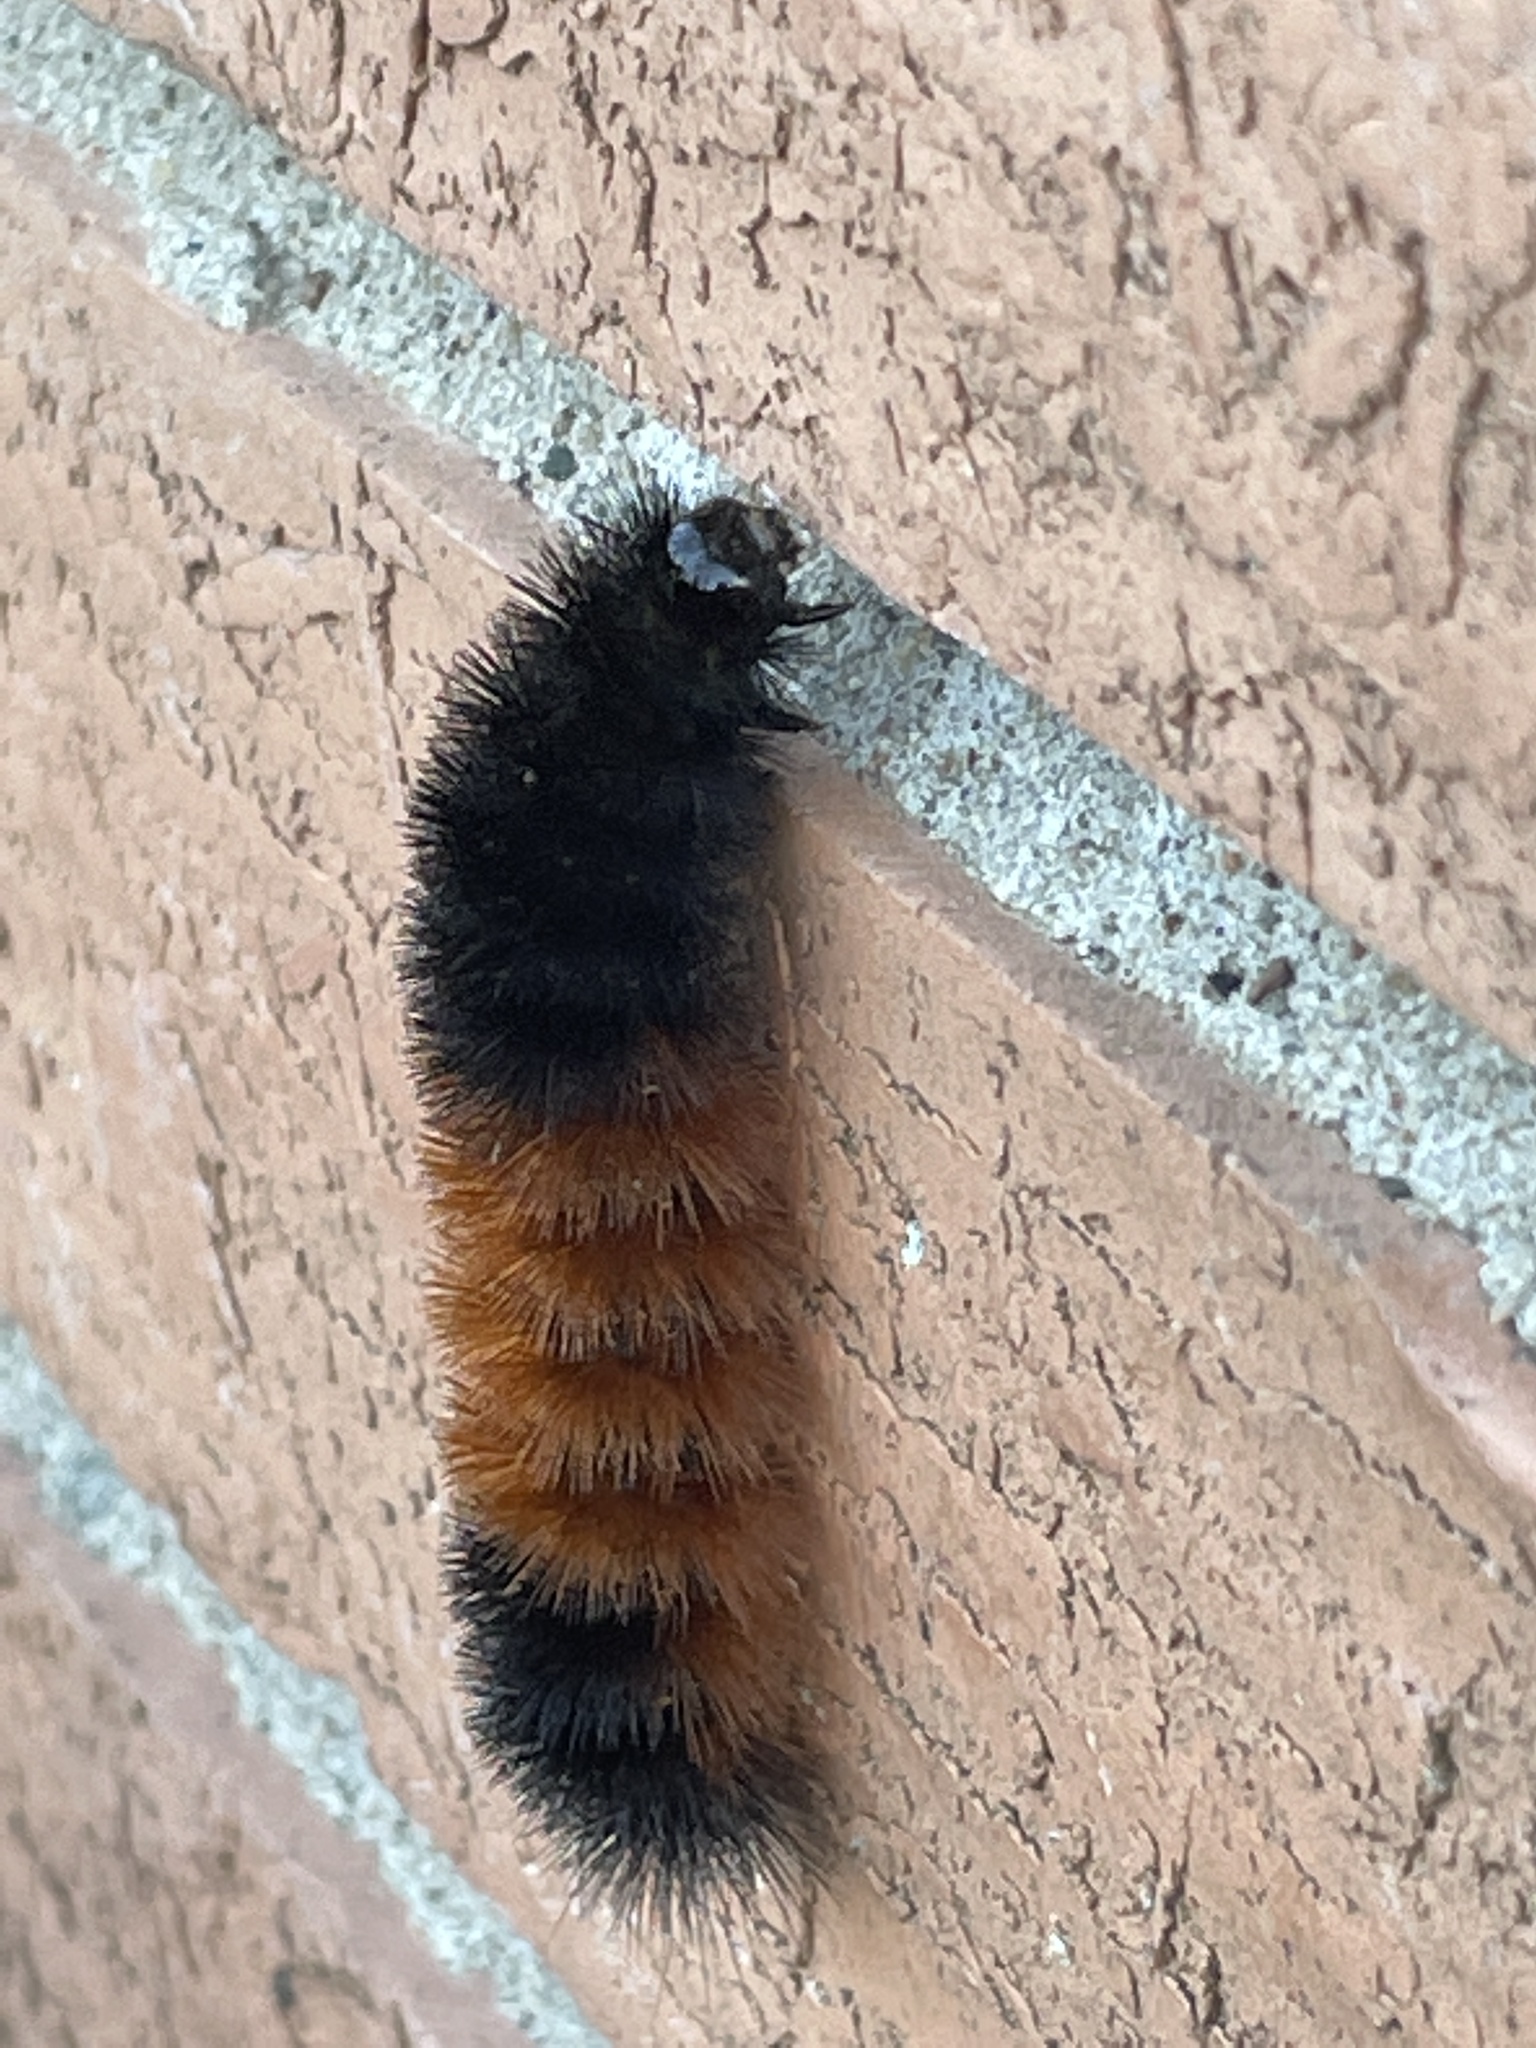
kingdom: Animalia
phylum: Arthropoda
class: Insecta
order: Lepidoptera
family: Erebidae
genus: Pyrrharctia
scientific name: Pyrrharctia isabella
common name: Isabella tiger moth
